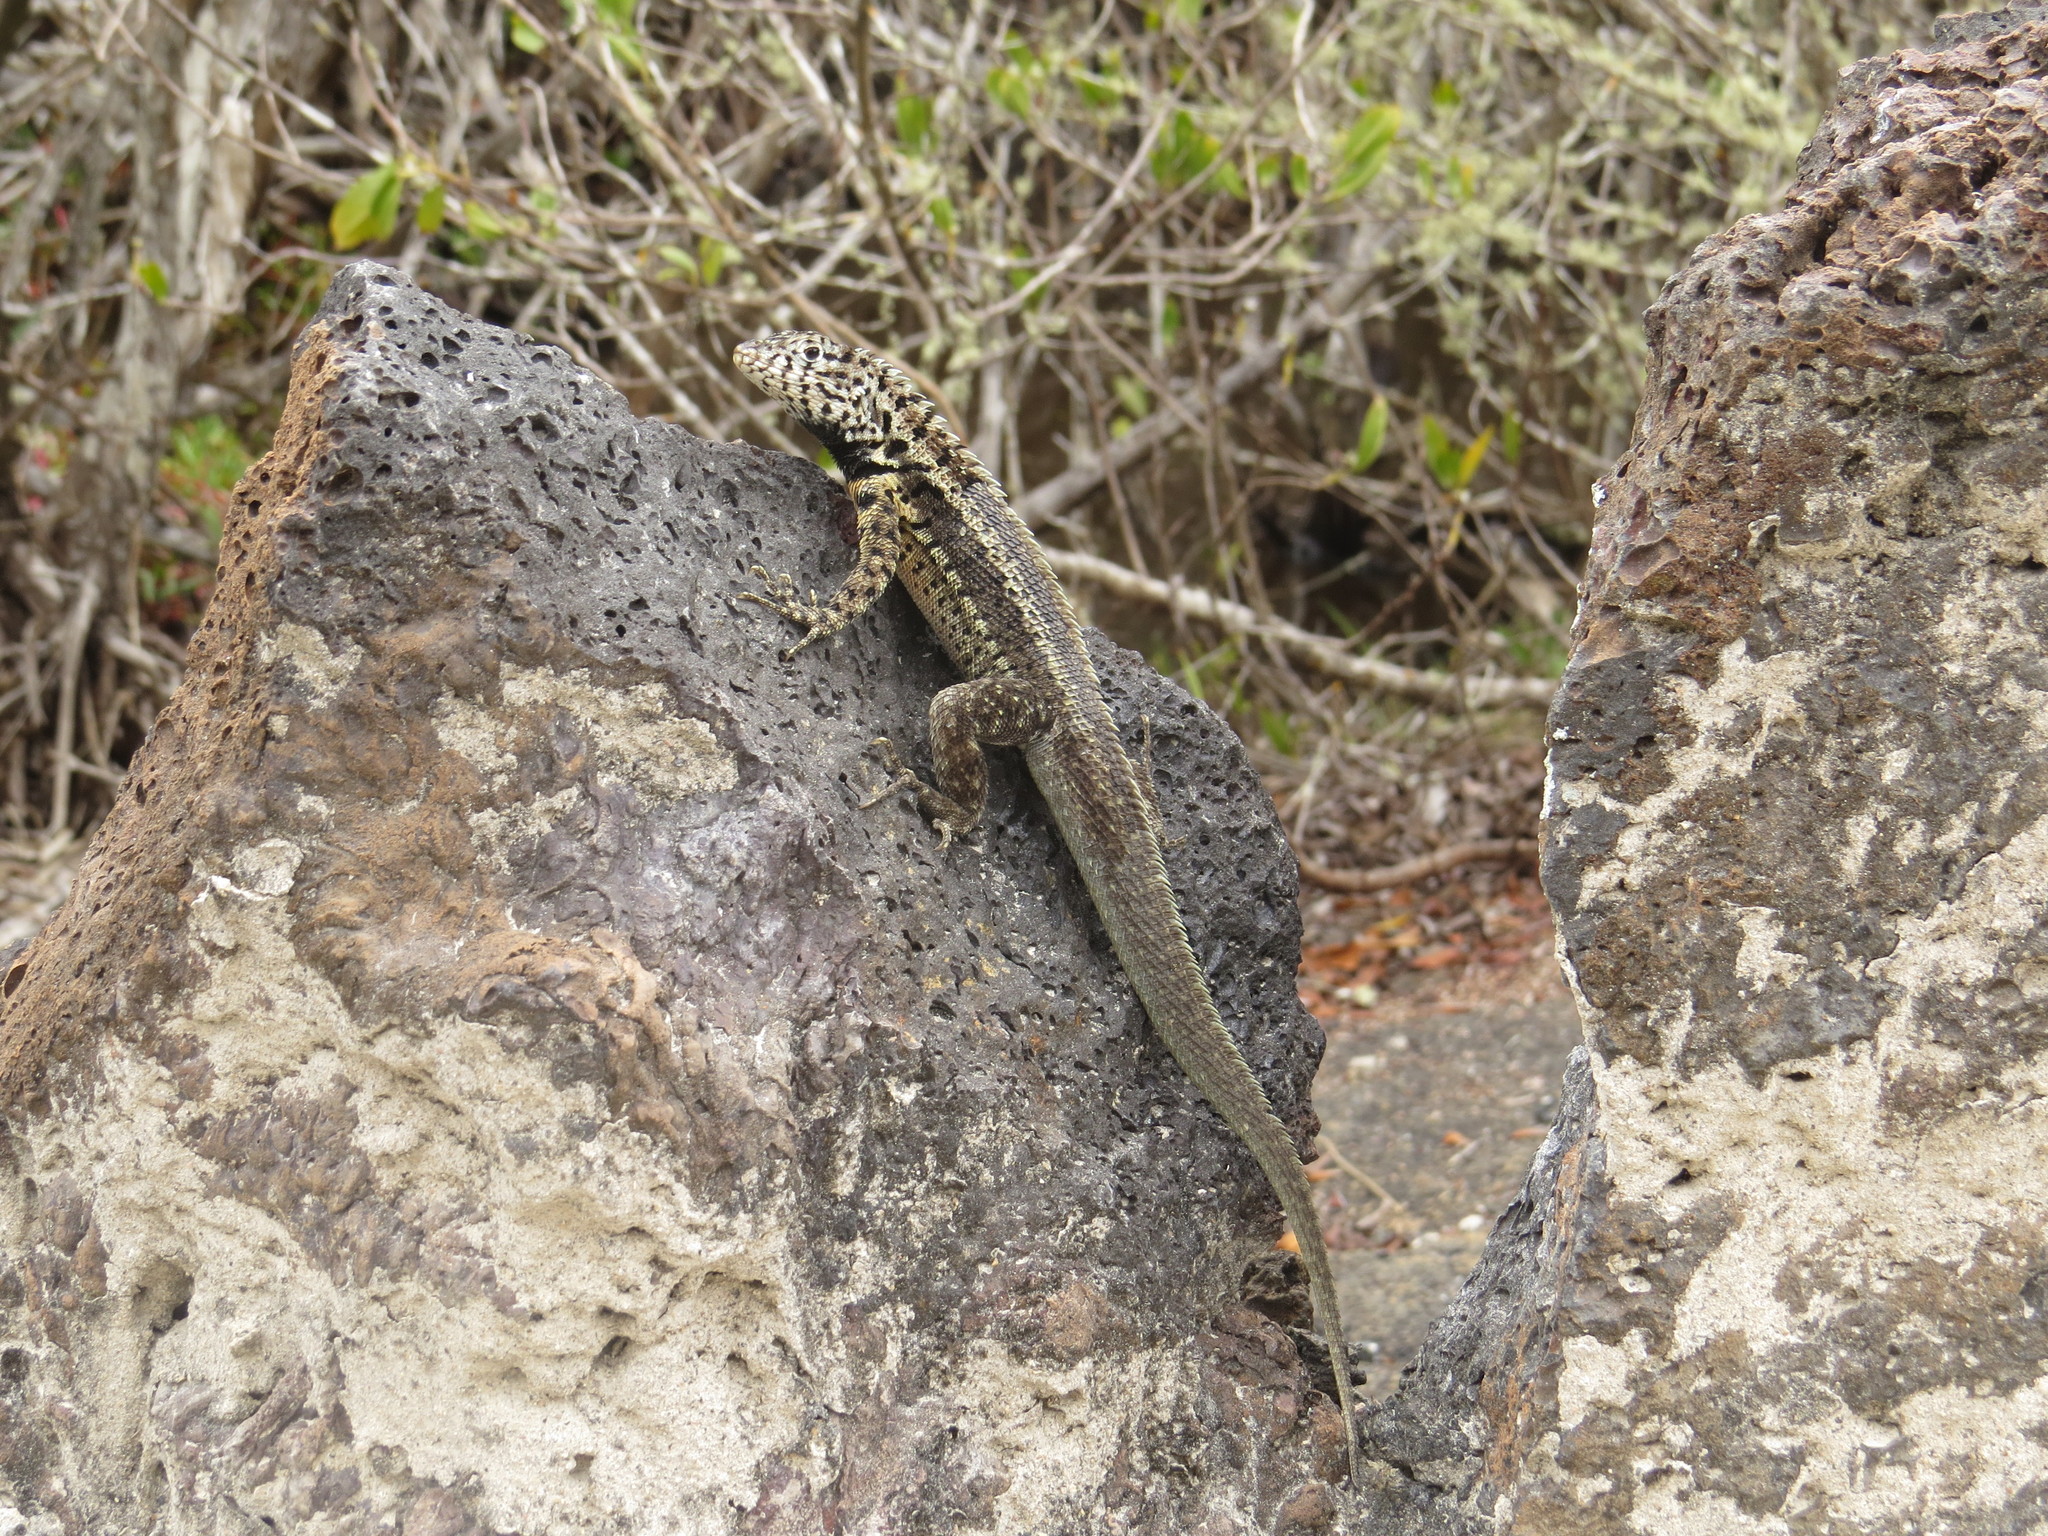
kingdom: Animalia
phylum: Chordata
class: Squamata
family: Tropiduridae
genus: Microlophus
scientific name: Microlophus albemarlensis
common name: Galapagos lava lizard
